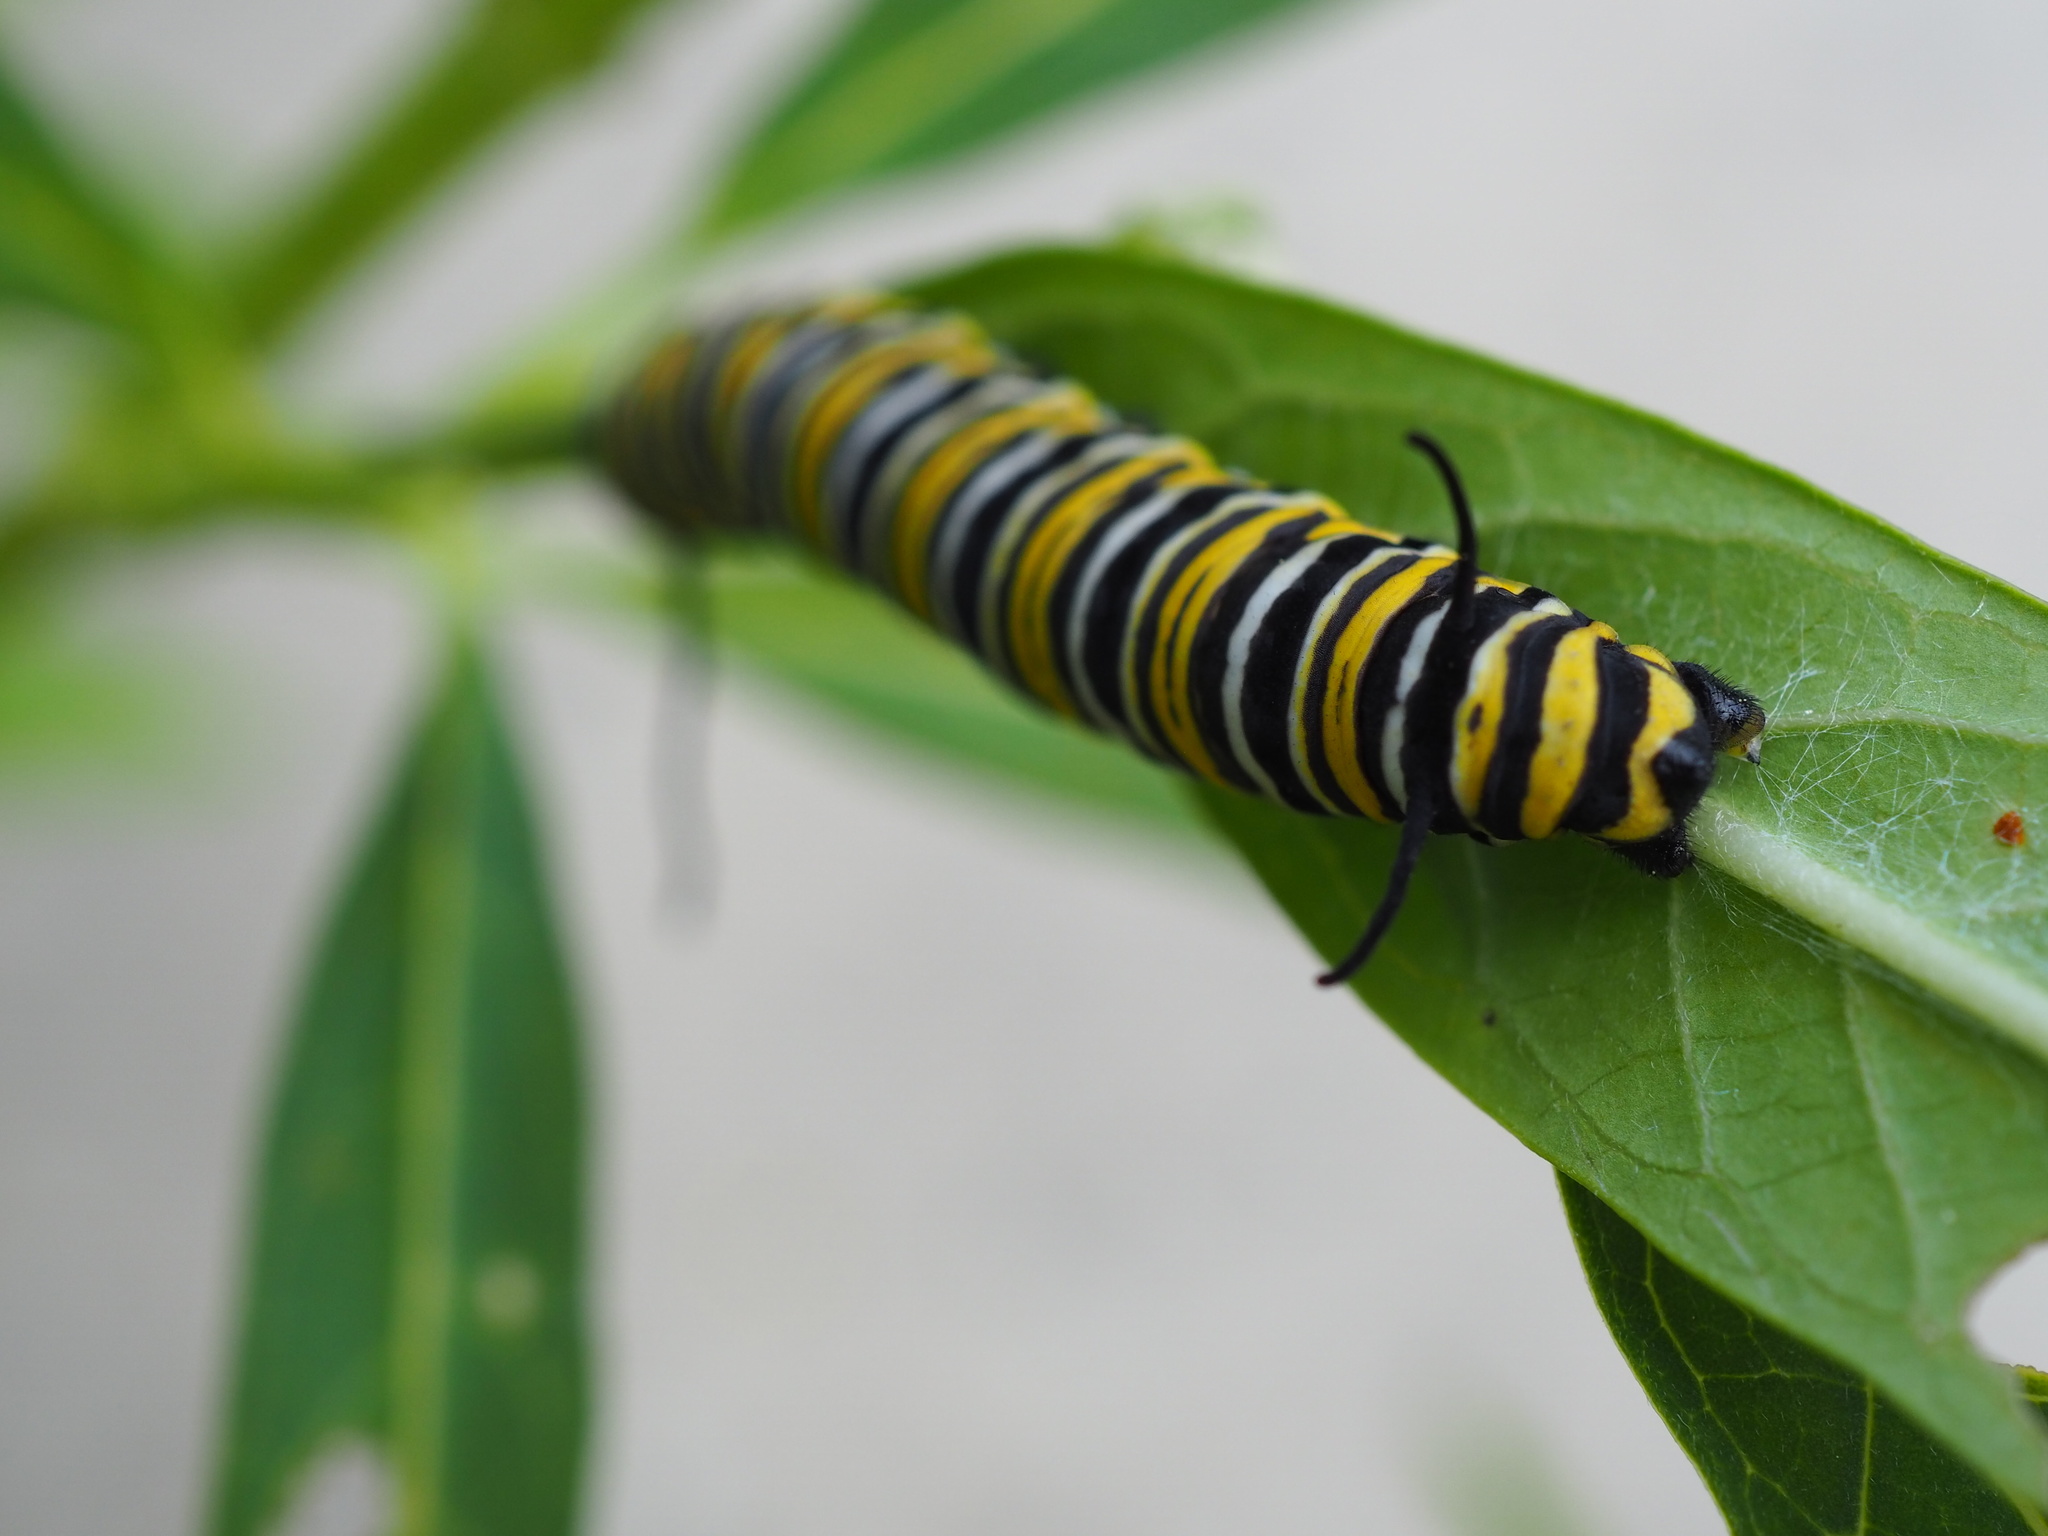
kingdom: Animalia
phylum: Arthropoda
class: Insecta
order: Lepidoptera
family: Nymphalidae
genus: Danaus
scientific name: Danaus plexippus
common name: Monarch
